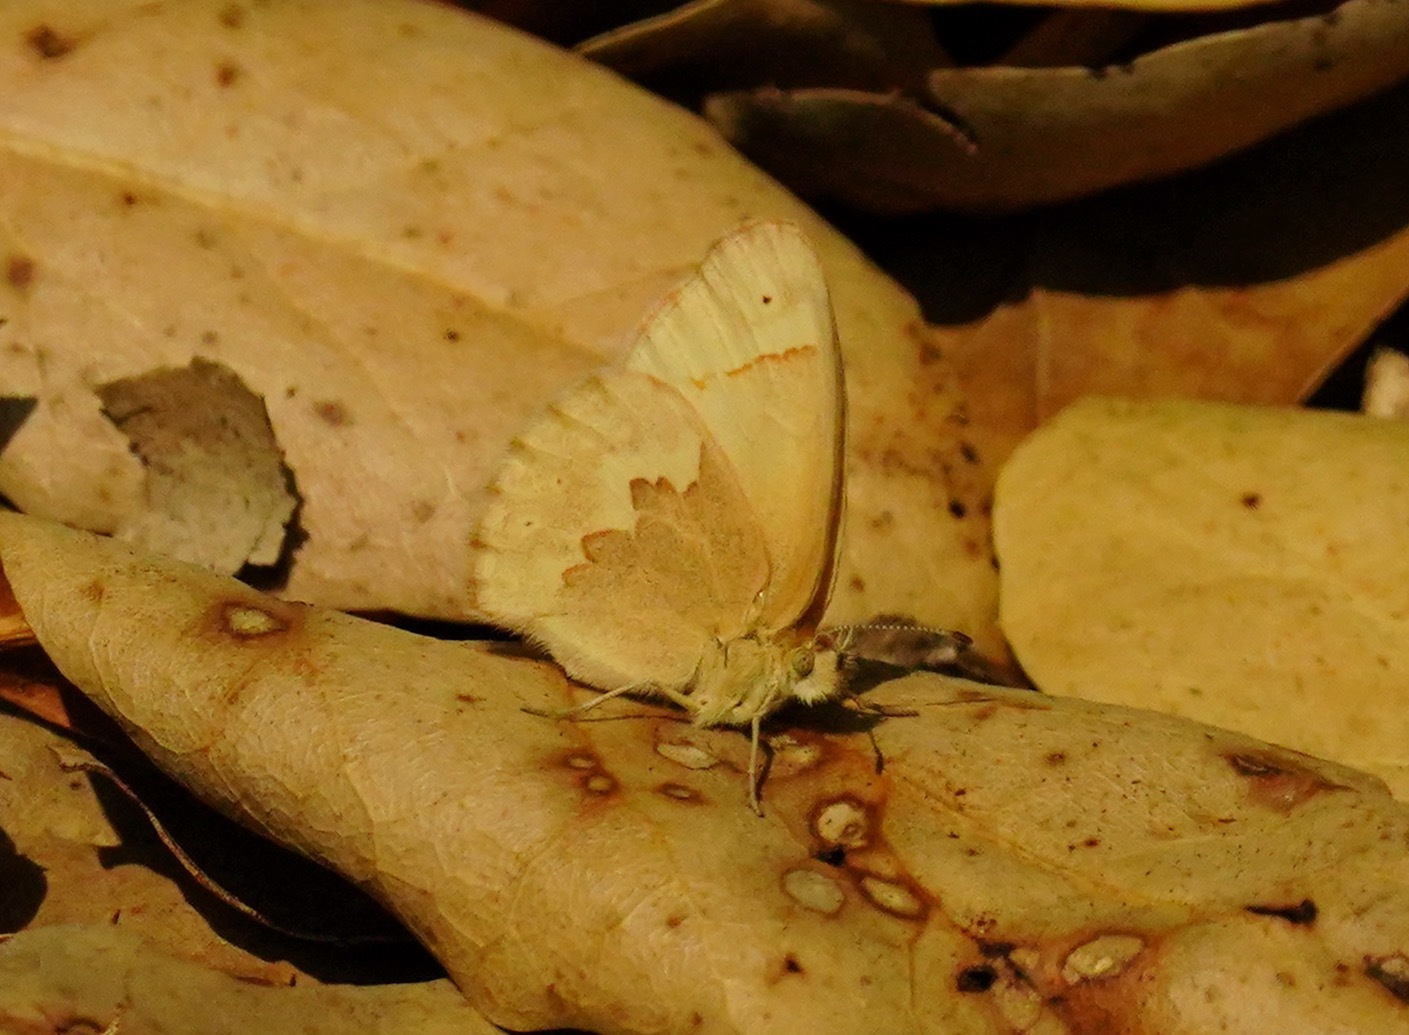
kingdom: Animalia
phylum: Arthropoda
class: Insecta
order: Lepidoptera
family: Nymphalidae
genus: Coenonympha
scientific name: Coenonympha california
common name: Common ringlet
